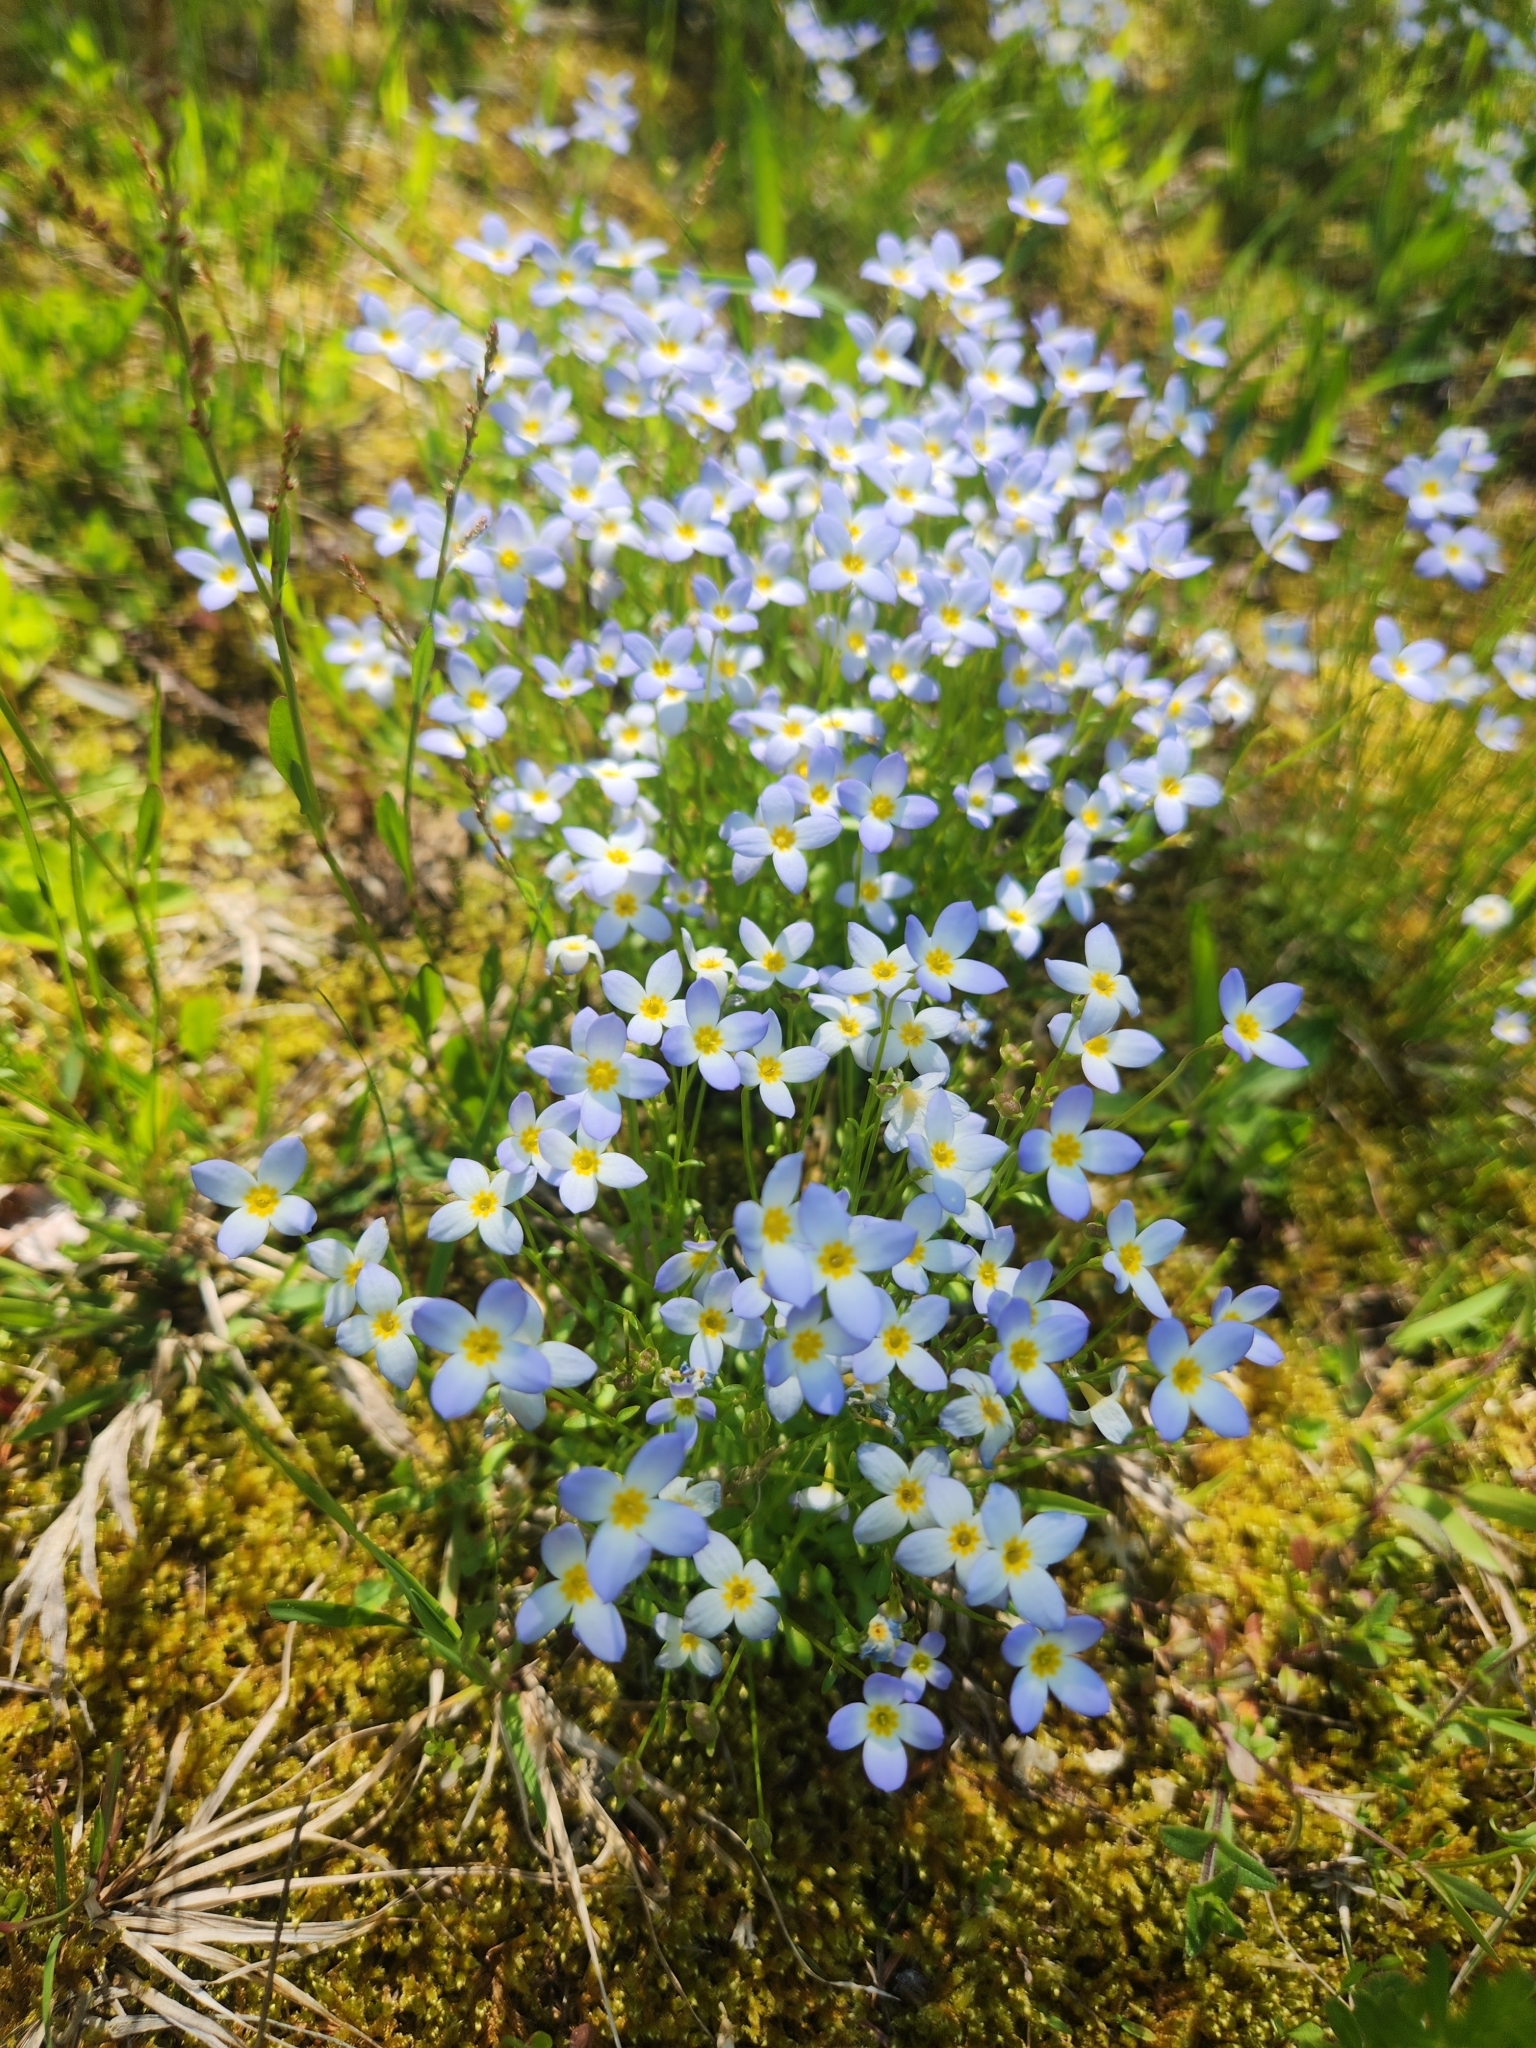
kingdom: Plantae
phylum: Tracheophyta
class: Magnoliopsida
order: Gentianales
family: Rubiaceae
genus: Houstonia
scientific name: Houstonia caerulea
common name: Bluets
